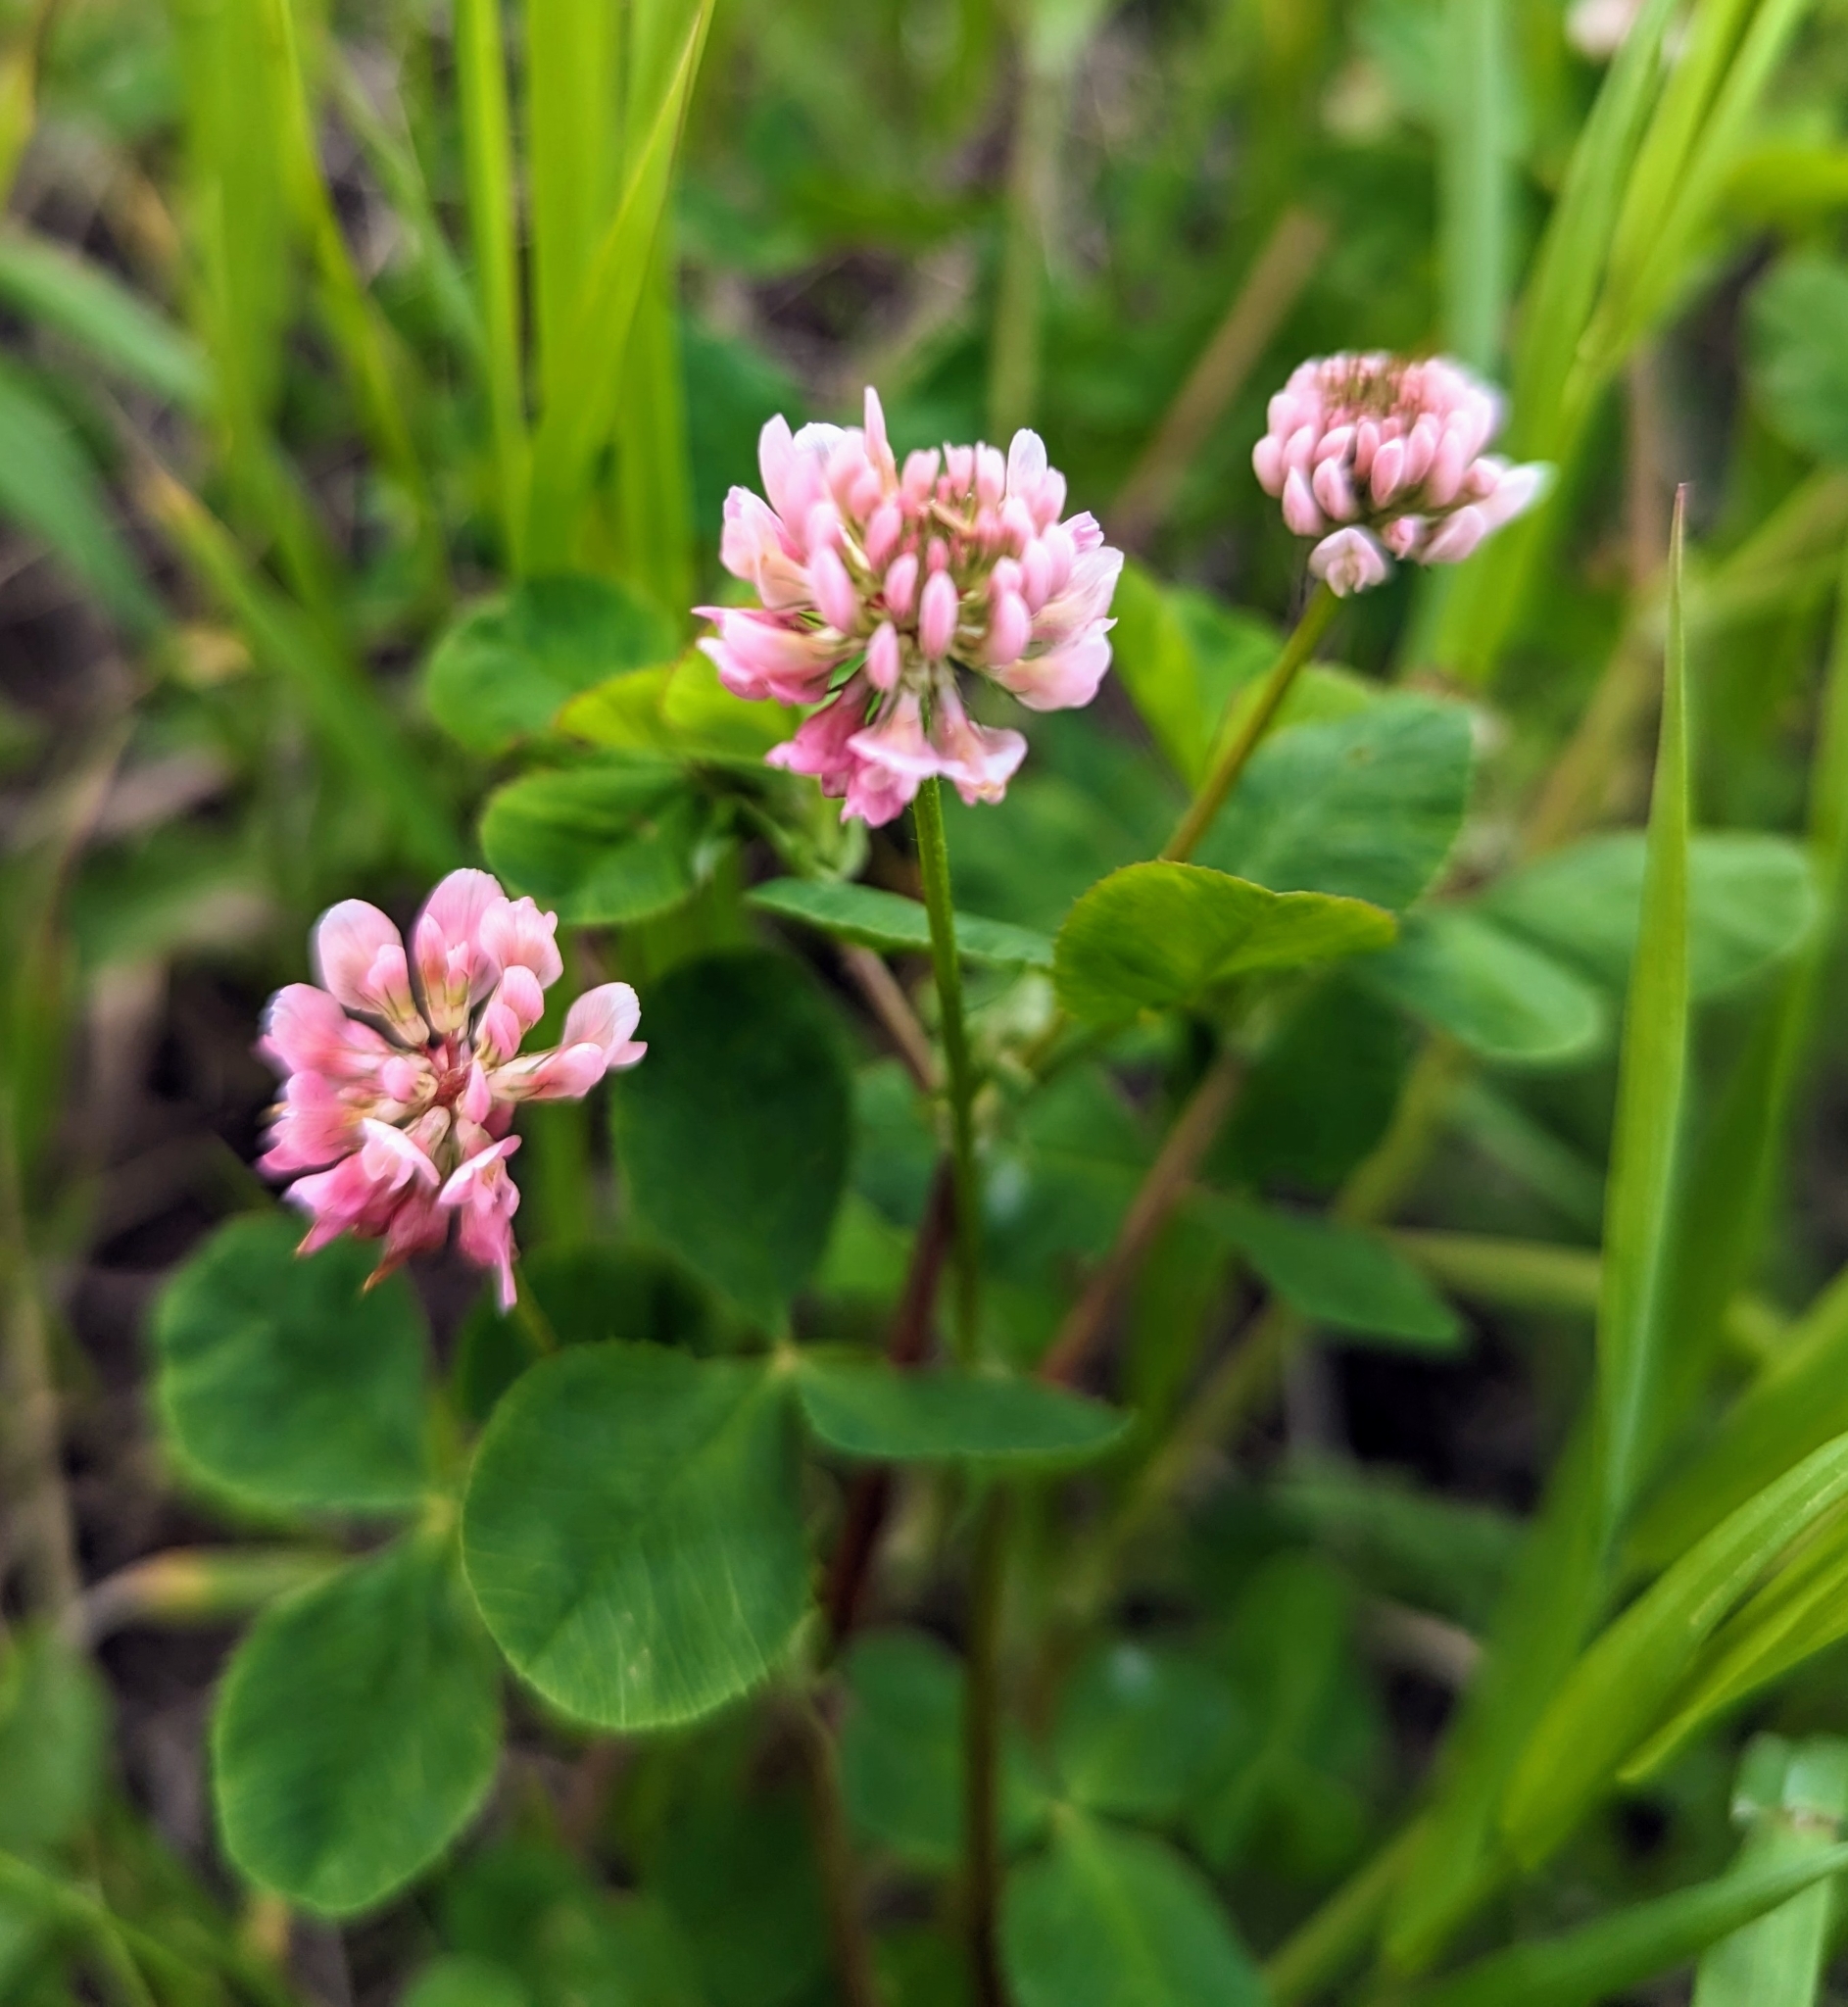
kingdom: Plantae
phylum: Tracheophyta
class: Magnoliopsida
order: Fabales
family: Fabaceae
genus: Trifolium
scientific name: Trifolium hybridum
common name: Alsike clover
